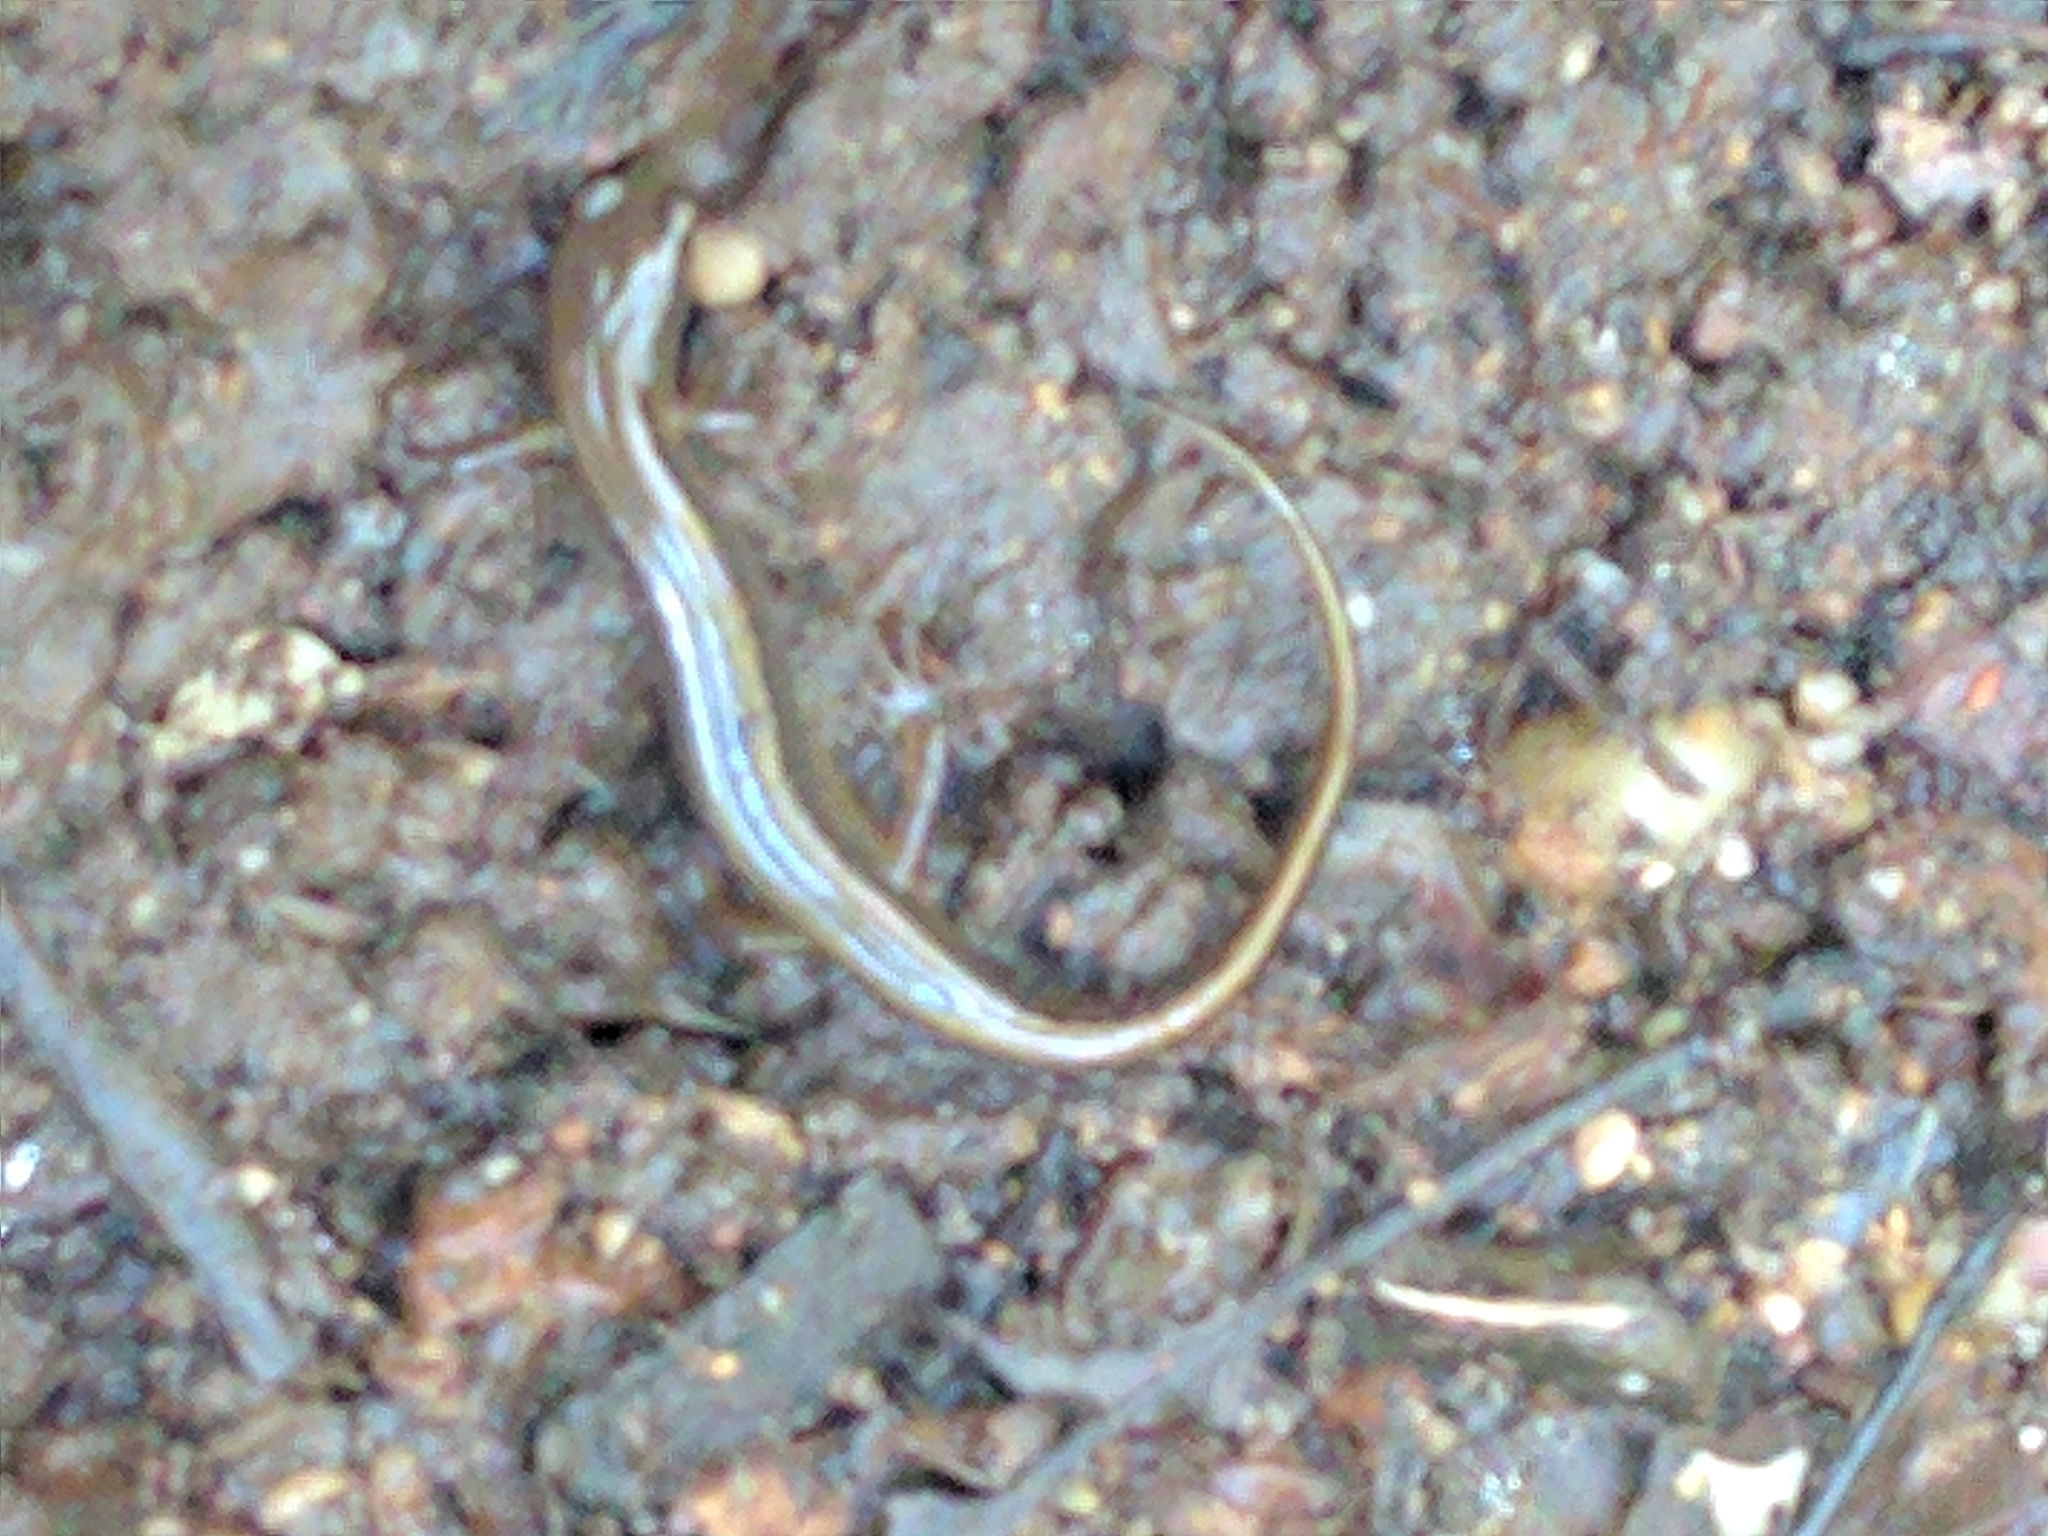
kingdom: Animalia
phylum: Chordata
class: Amphibia
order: Caudata
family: Plethodontidae
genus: Eurycea
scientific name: Eurycea bislineata
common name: Northern two-lined salamander
